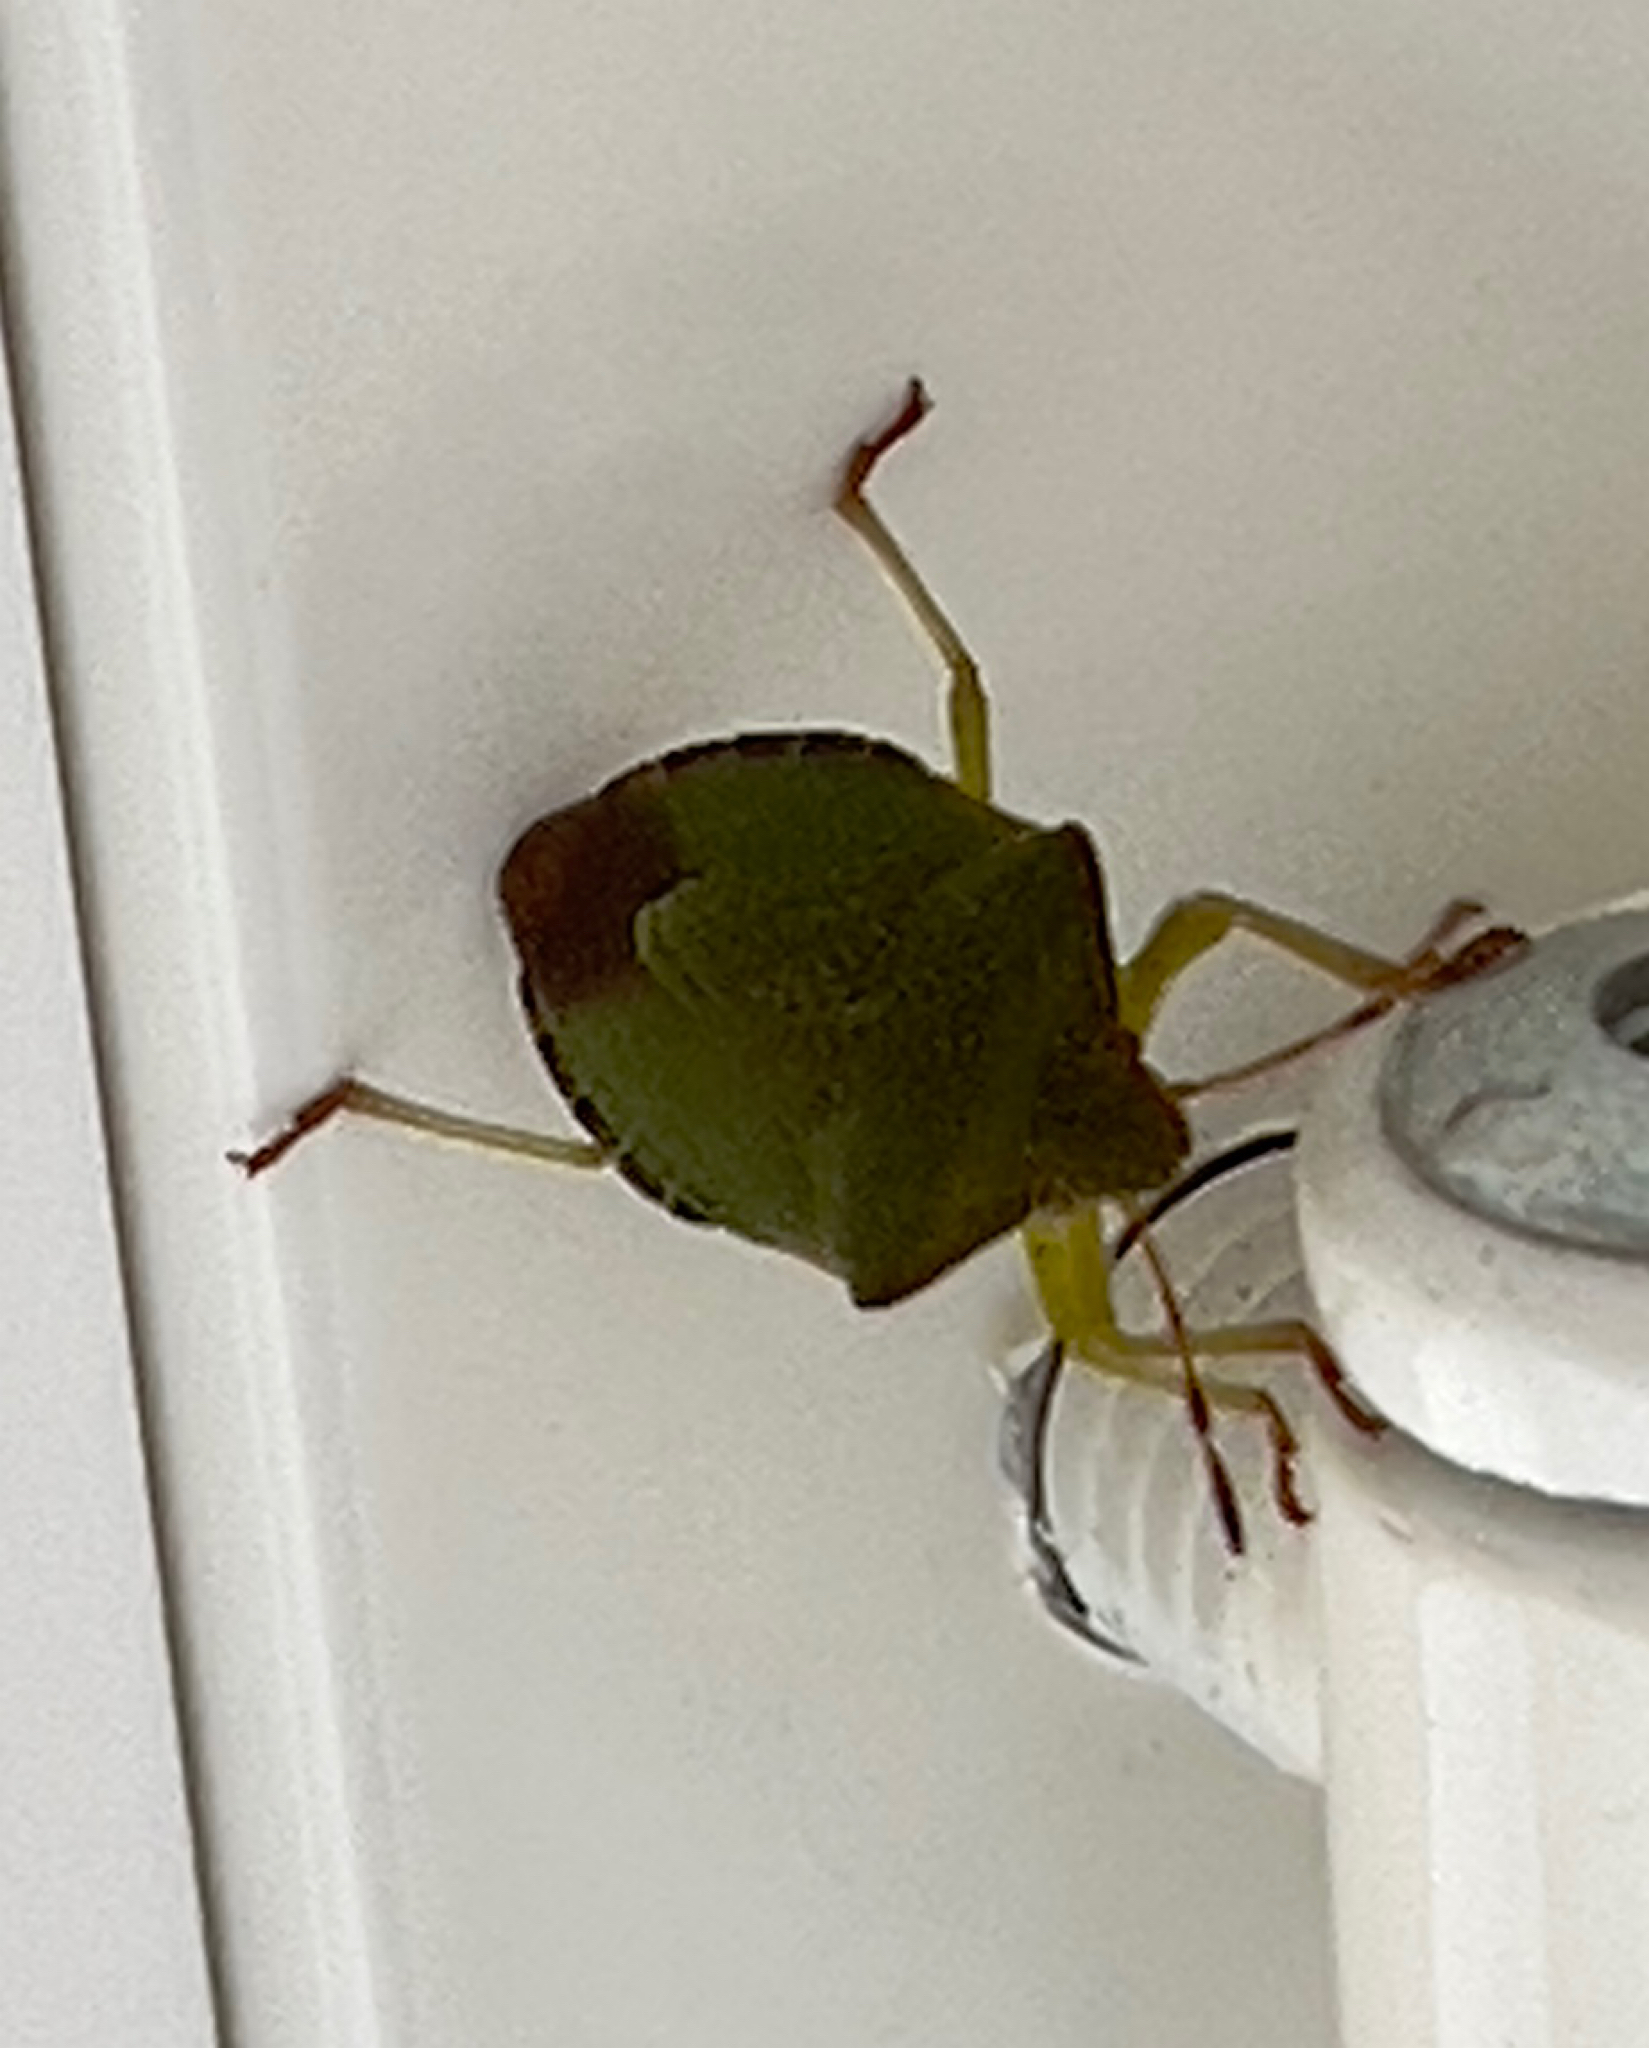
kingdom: Animalia
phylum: Arthropoda
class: Insecta
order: Hemiptera
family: Pentatomidae
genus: Palomena
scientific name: Palomena prasina
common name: Green shieldbug
